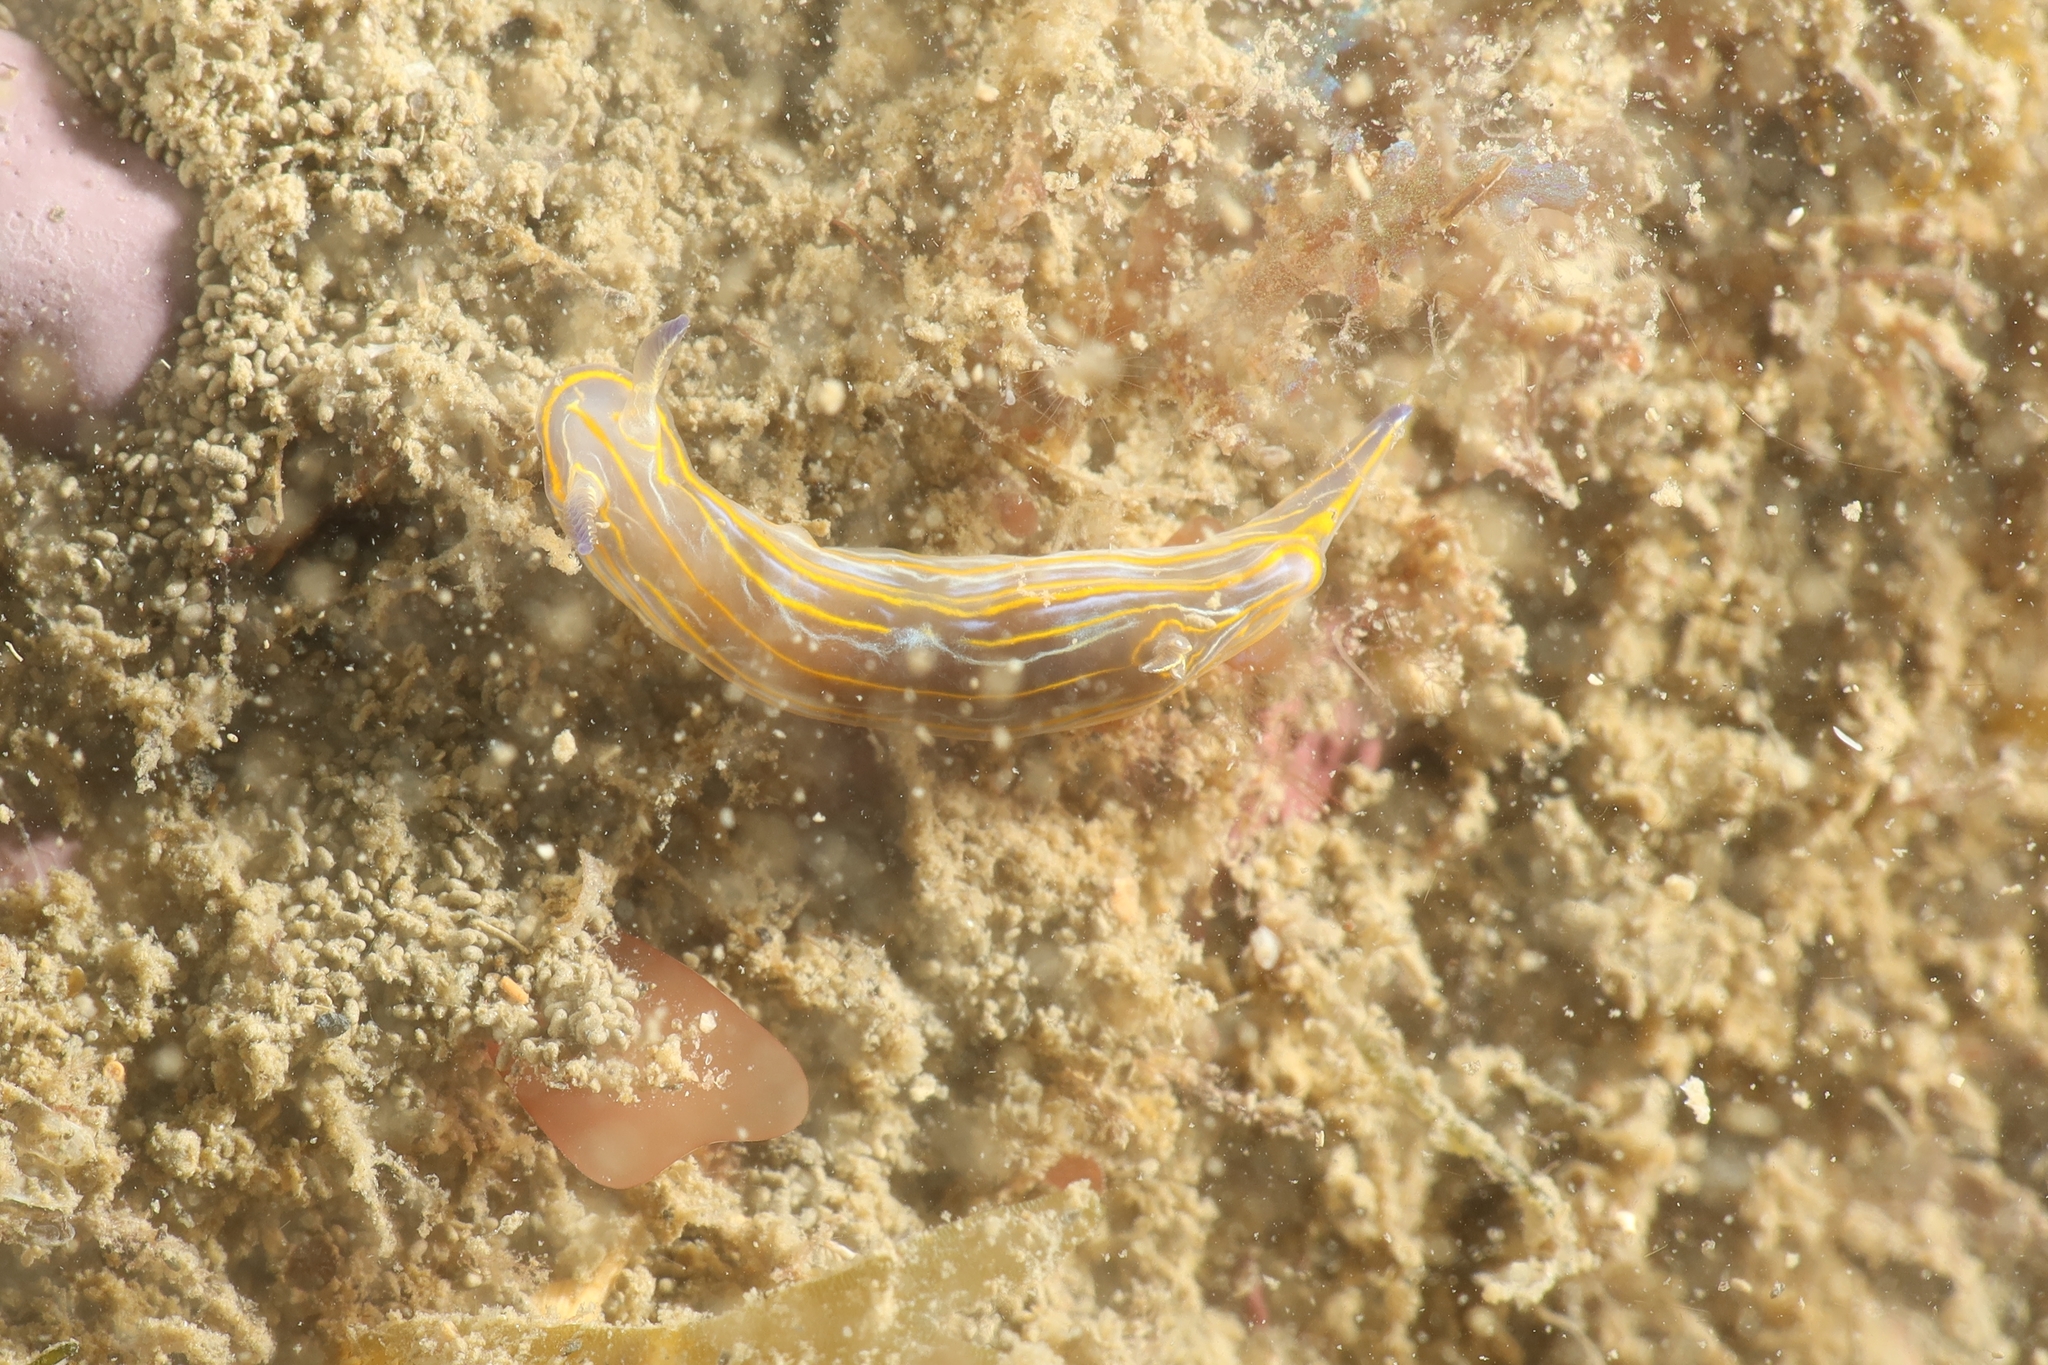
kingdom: Animalia
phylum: Mollusca
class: Gastropoda
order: Nudibranchia
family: Chromodorididae
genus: Felimare
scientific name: Felimare villafranca
